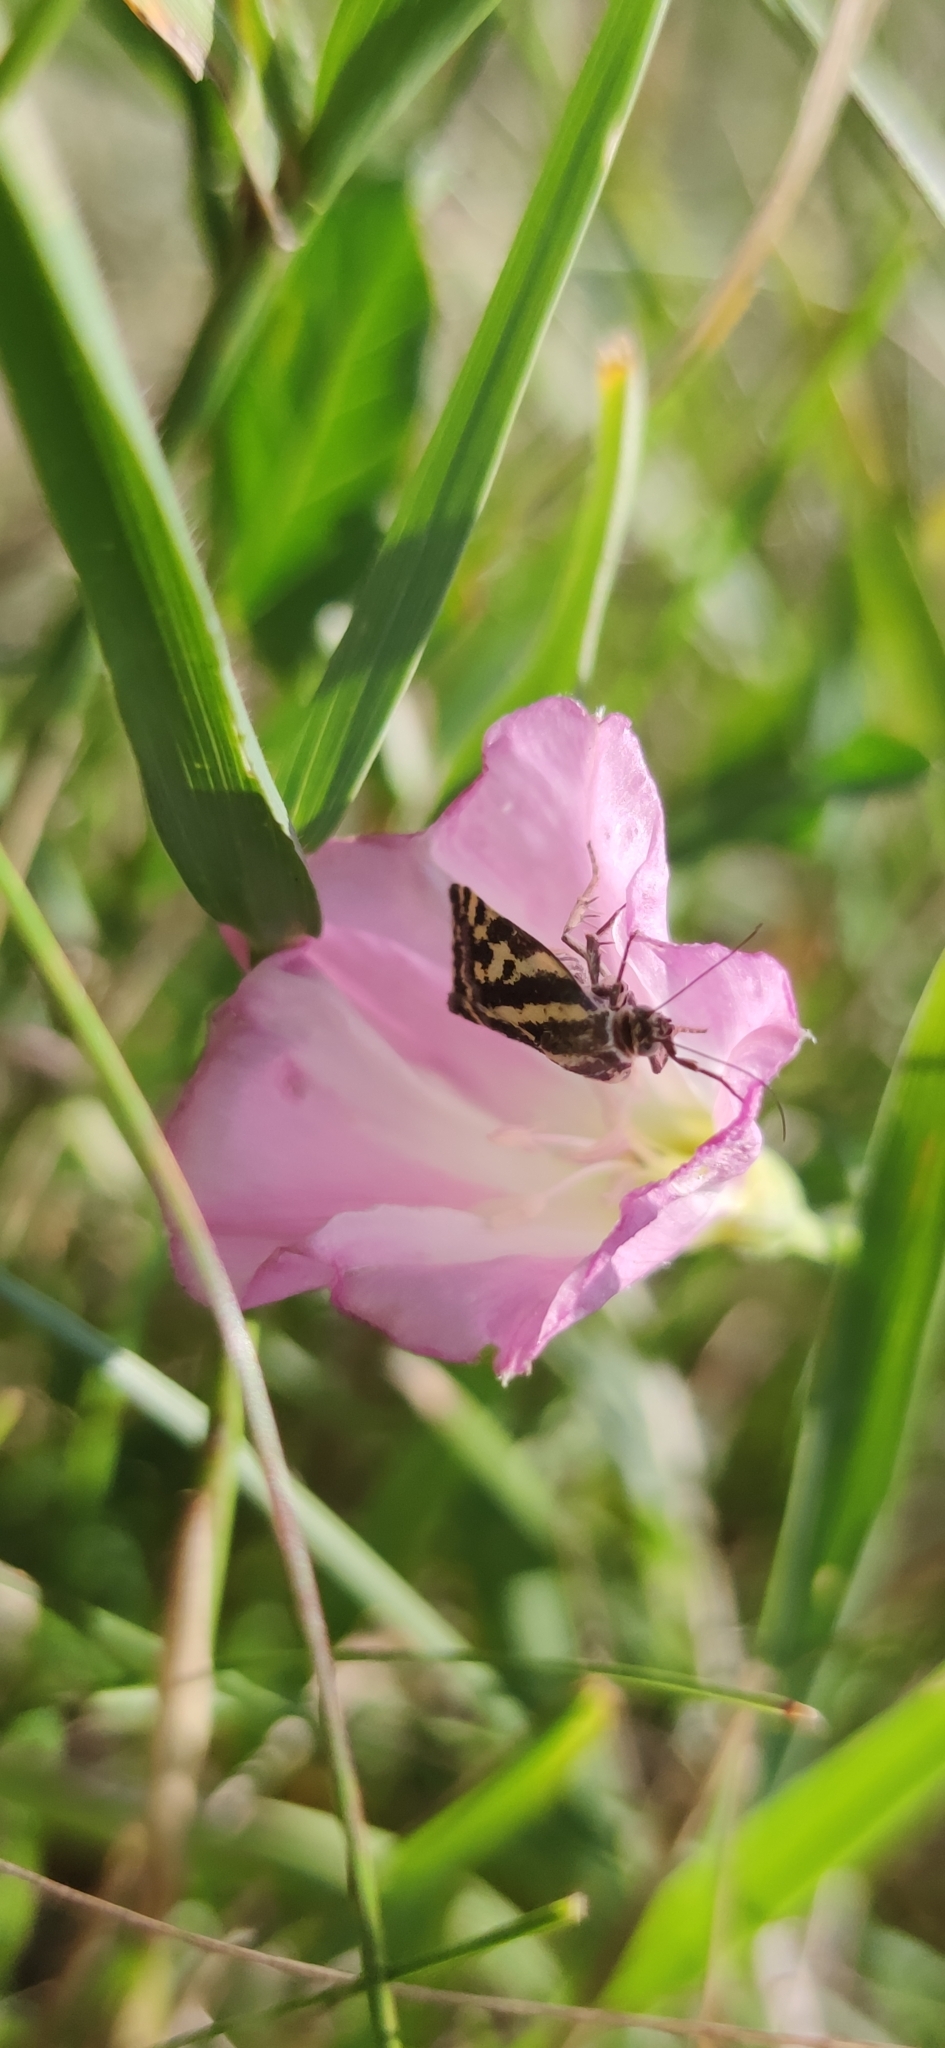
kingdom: Animalia
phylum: Arthropoda
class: Insecta
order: Lepidoptera
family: Noctuidae
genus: Acontia
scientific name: Acontia trabealis
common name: Spotted sulphur
